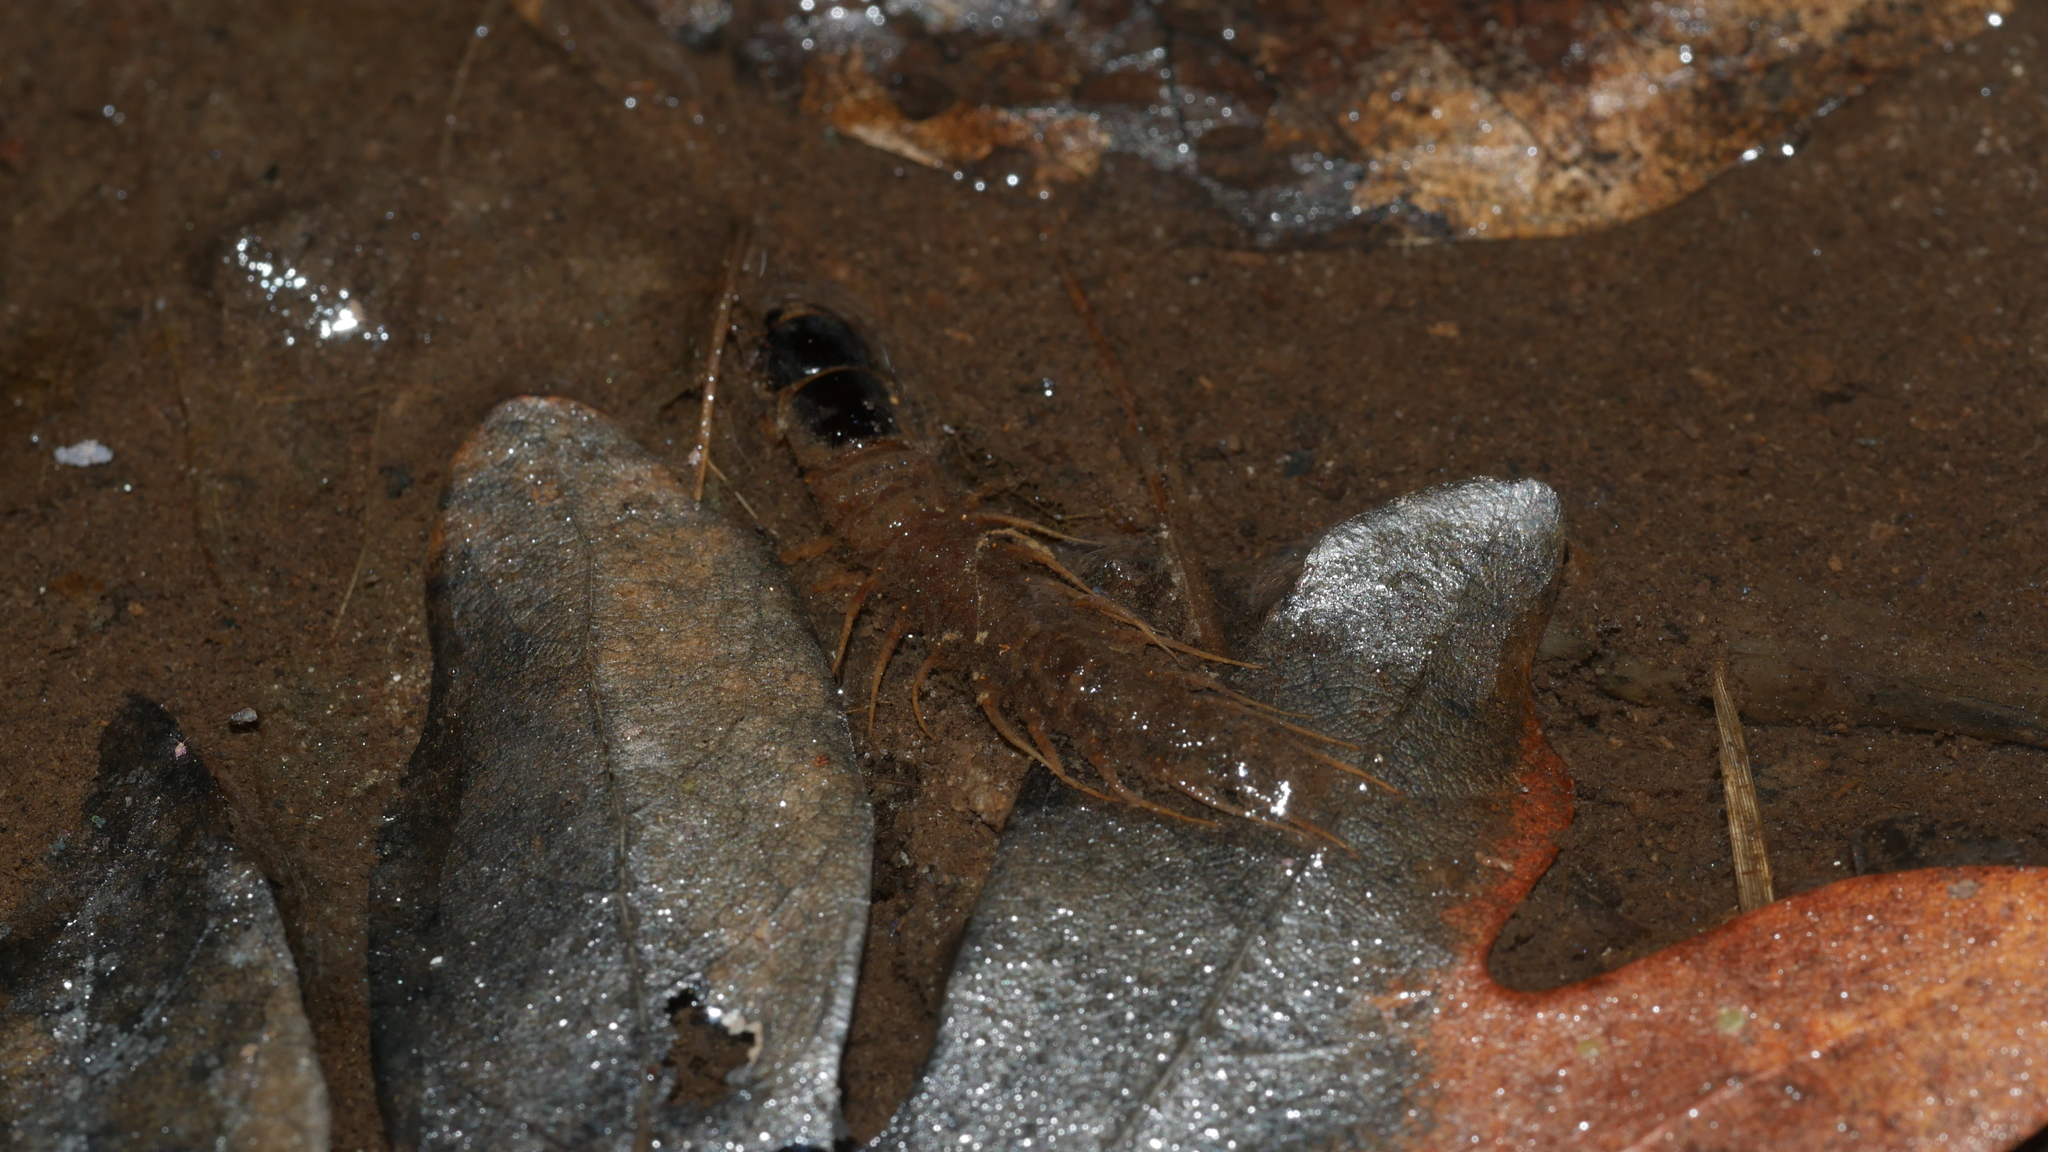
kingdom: Animalia
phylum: Arthropoda
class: Insecta
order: Megaloptera
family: Corydalidae
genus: Nigronia
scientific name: Nigronia serricornis
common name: Serrate dark fishfly
